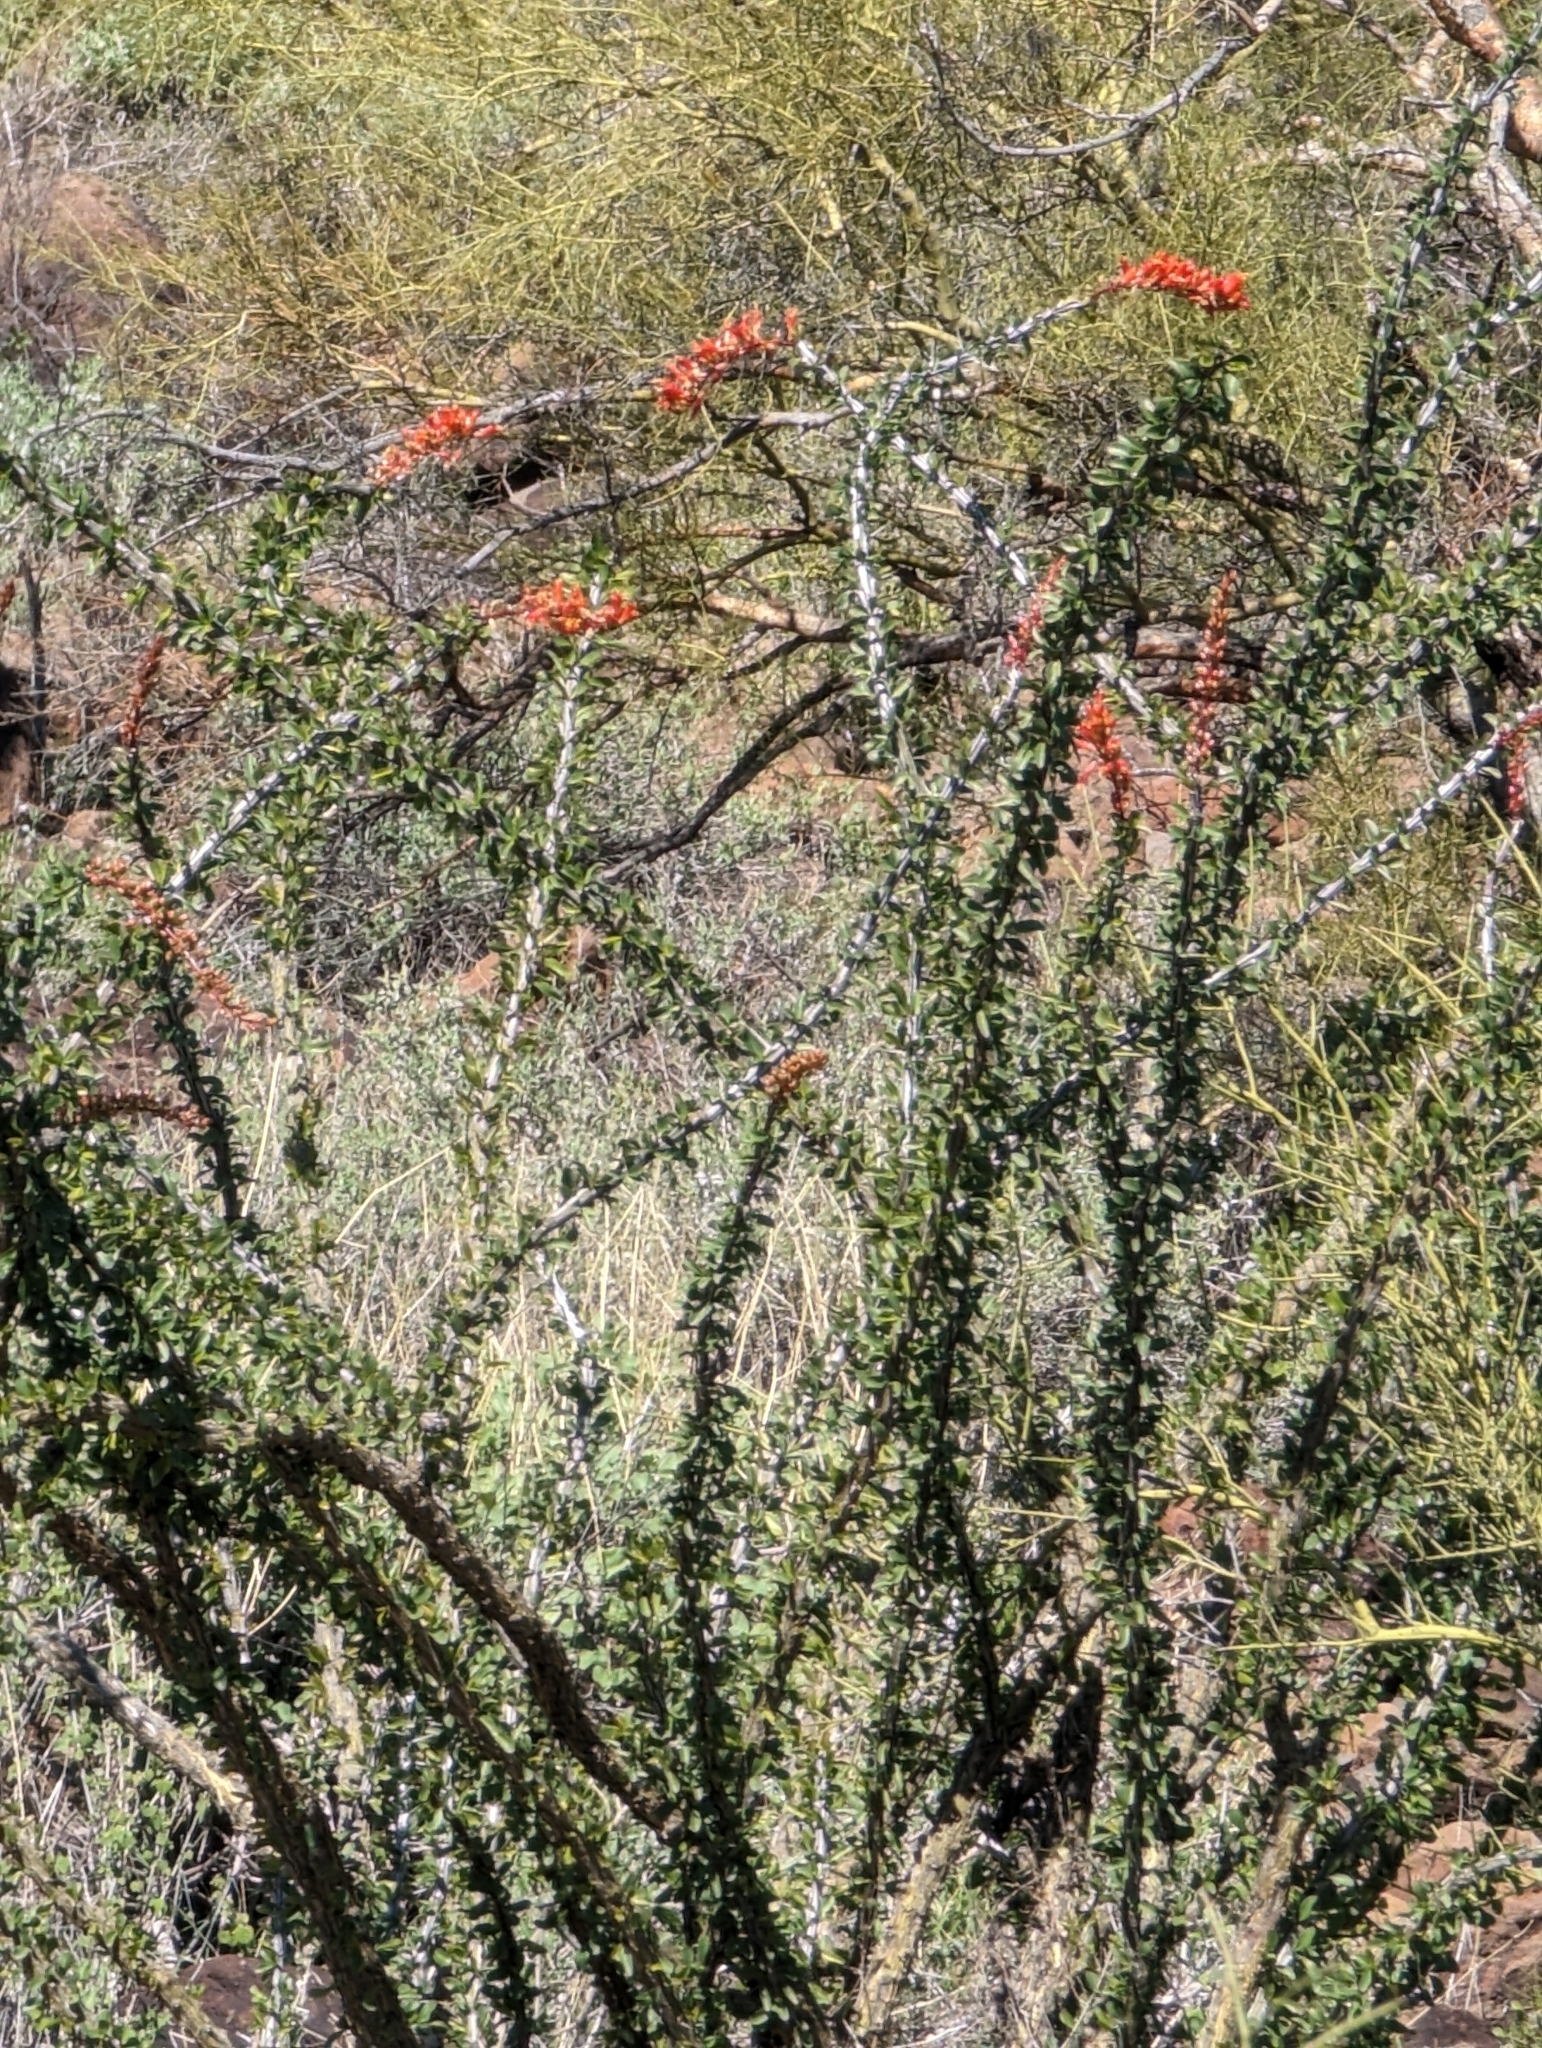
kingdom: Plantae
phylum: Tracheophyta
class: Magnoliopsida
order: Ericales
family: Fouquieriaceae
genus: Fouquieria
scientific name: Fouquieria splendens
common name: Vine-cactus
